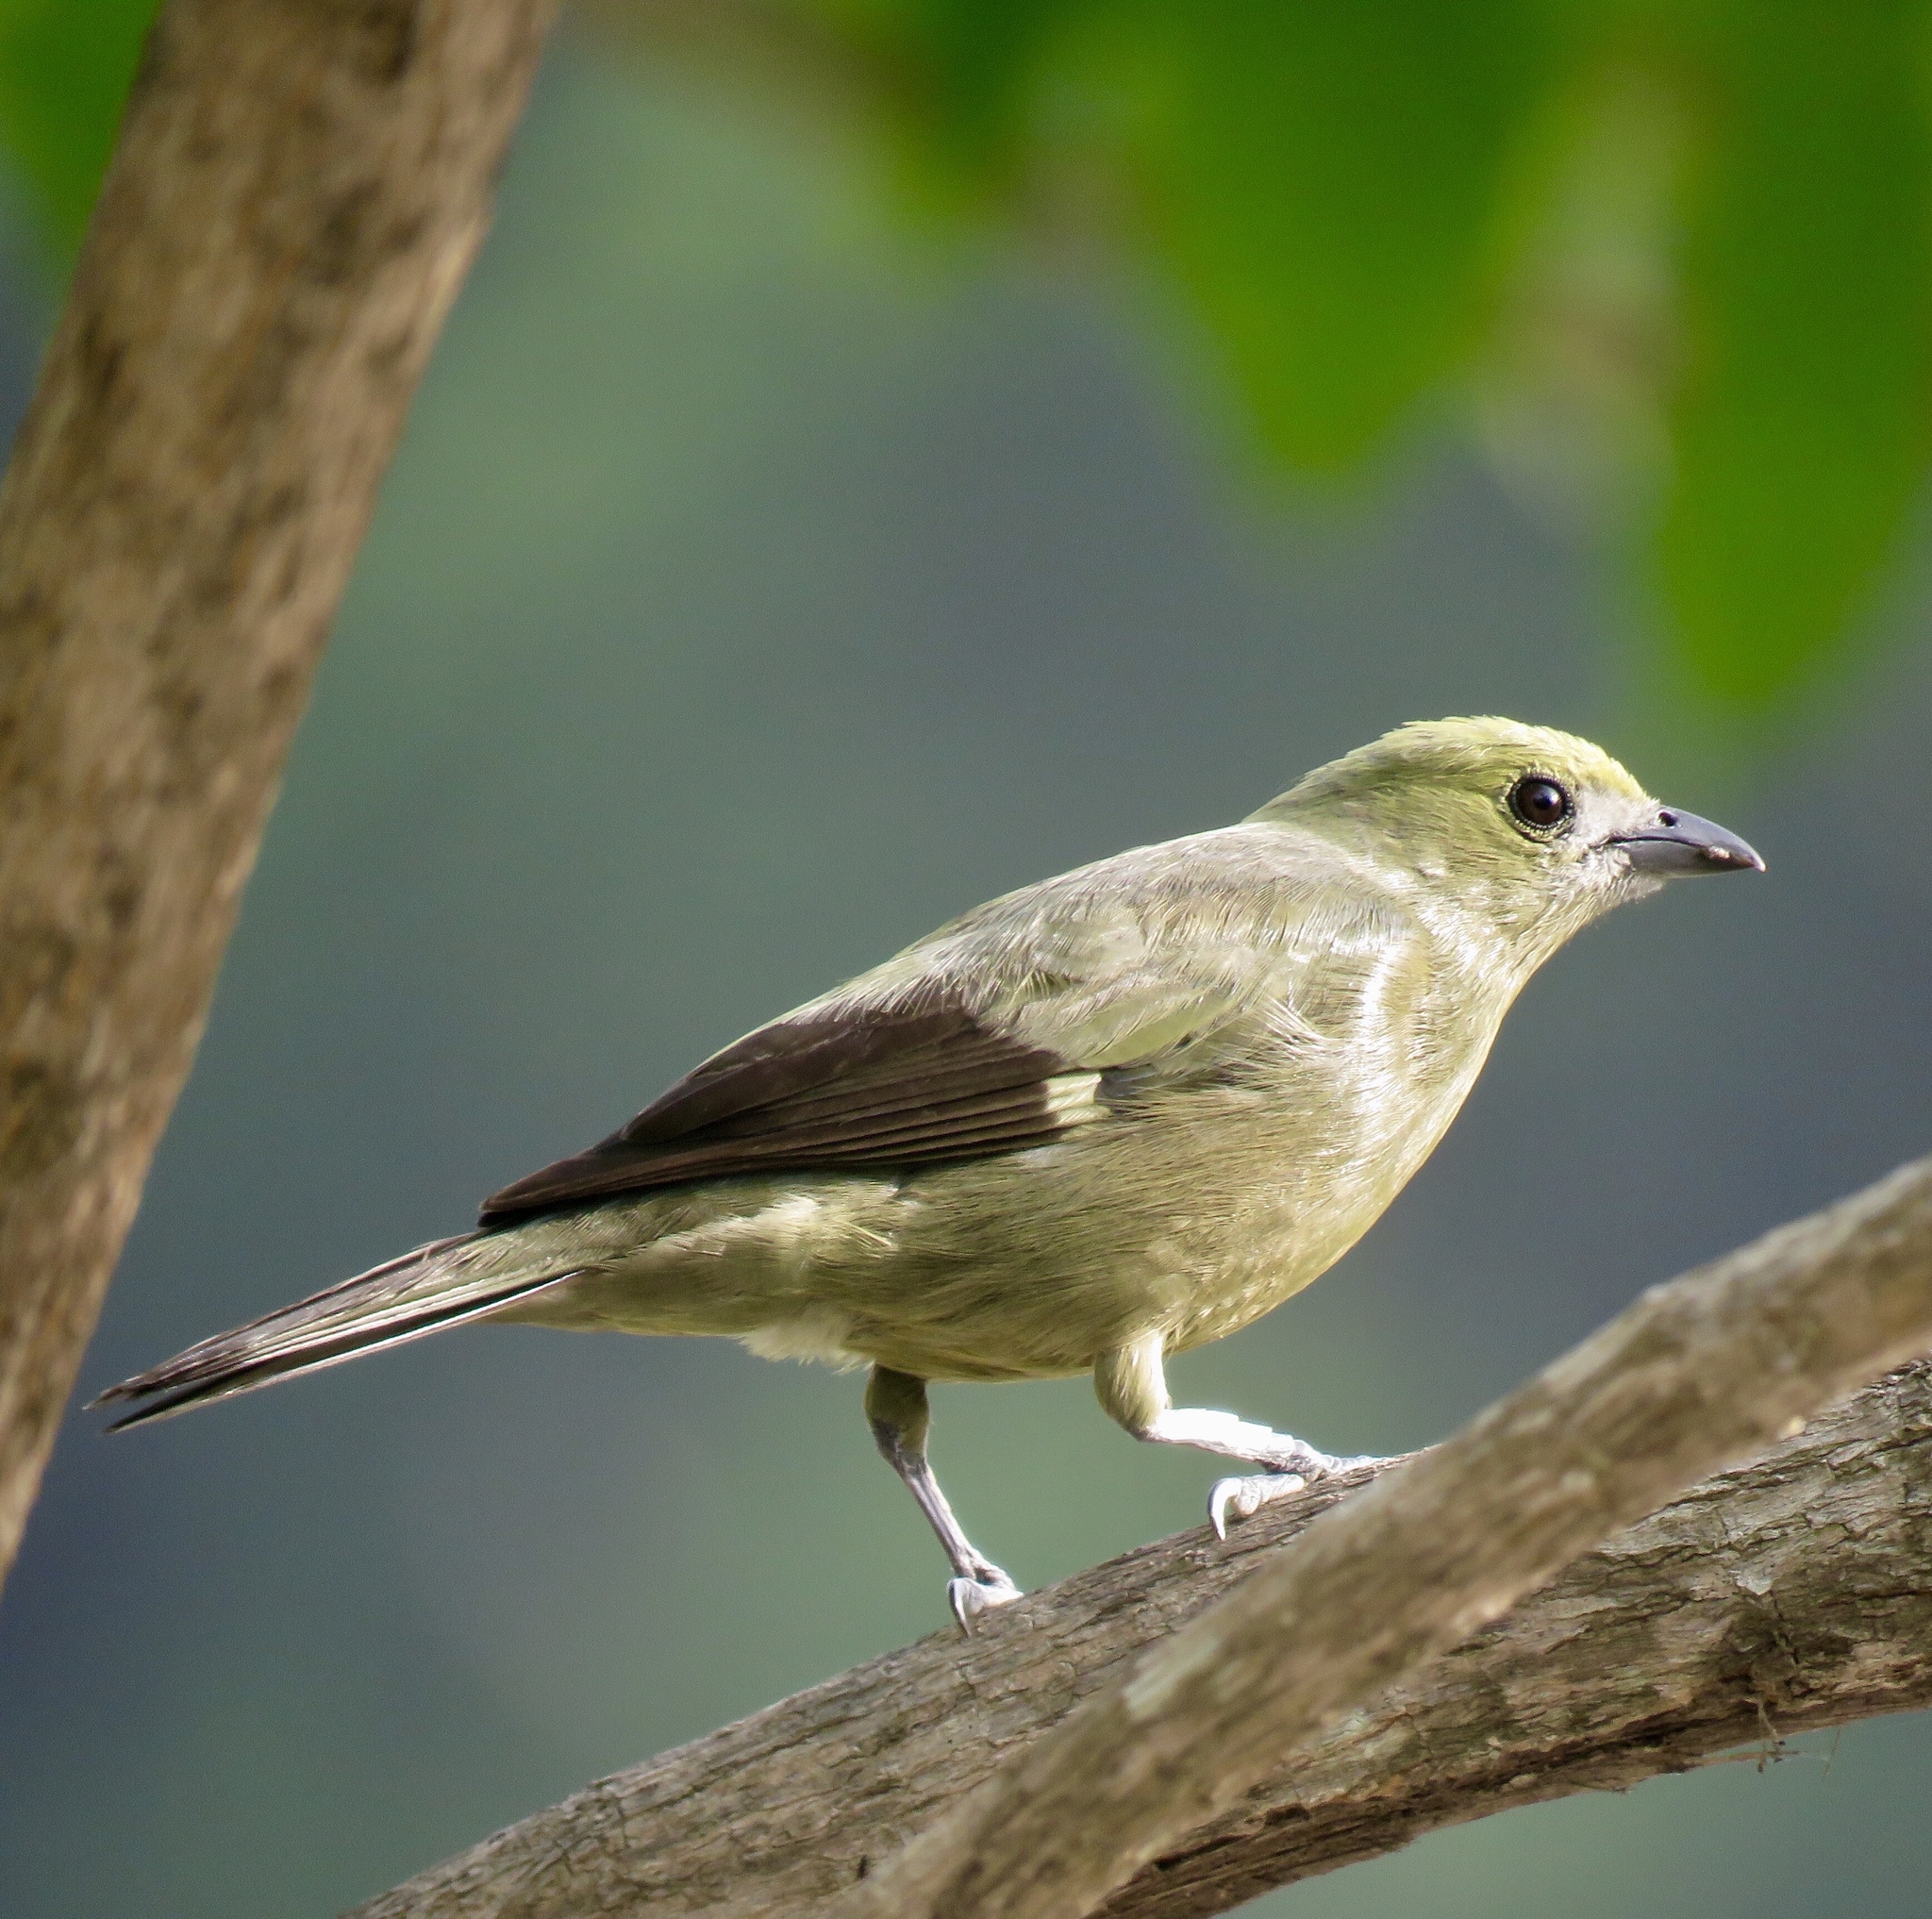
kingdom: Animalia
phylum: Chordata
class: Aves
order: Passeriformes
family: Thraupidae
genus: Thraupis
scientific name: Thraupis palmarum
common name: Palm tanager
